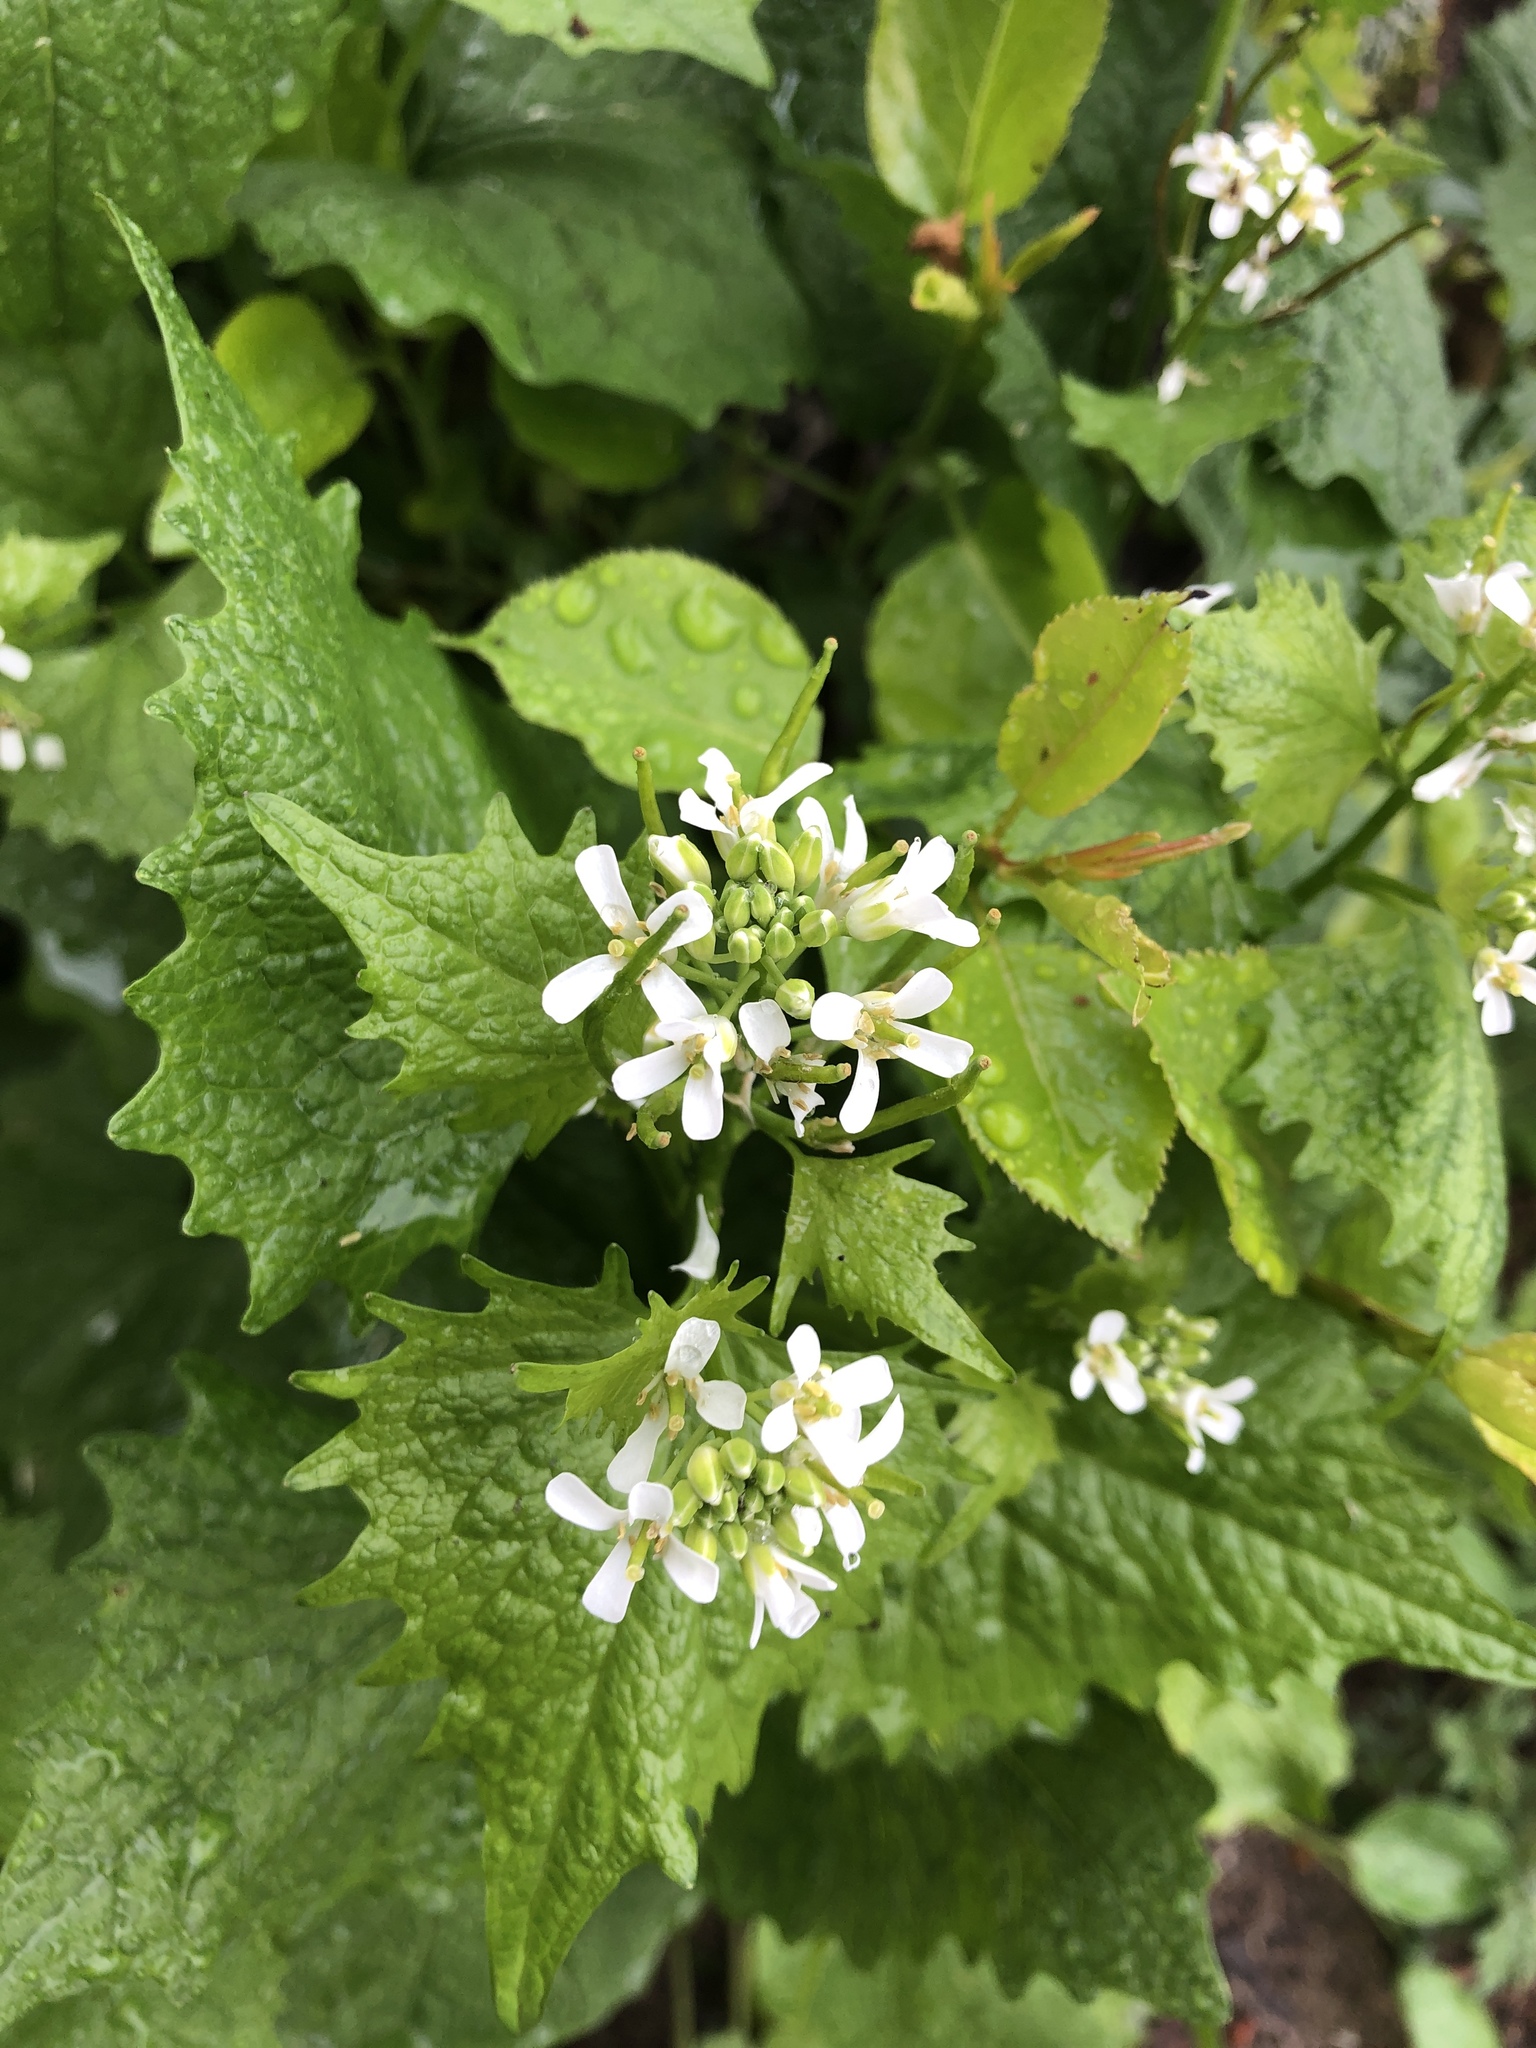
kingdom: Plantae
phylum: Tracheophyta
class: Magnoliopsida
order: Brassicales
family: Brassicaceae
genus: Alliaria
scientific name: Alliaria petiolata
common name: Garlic mustard
